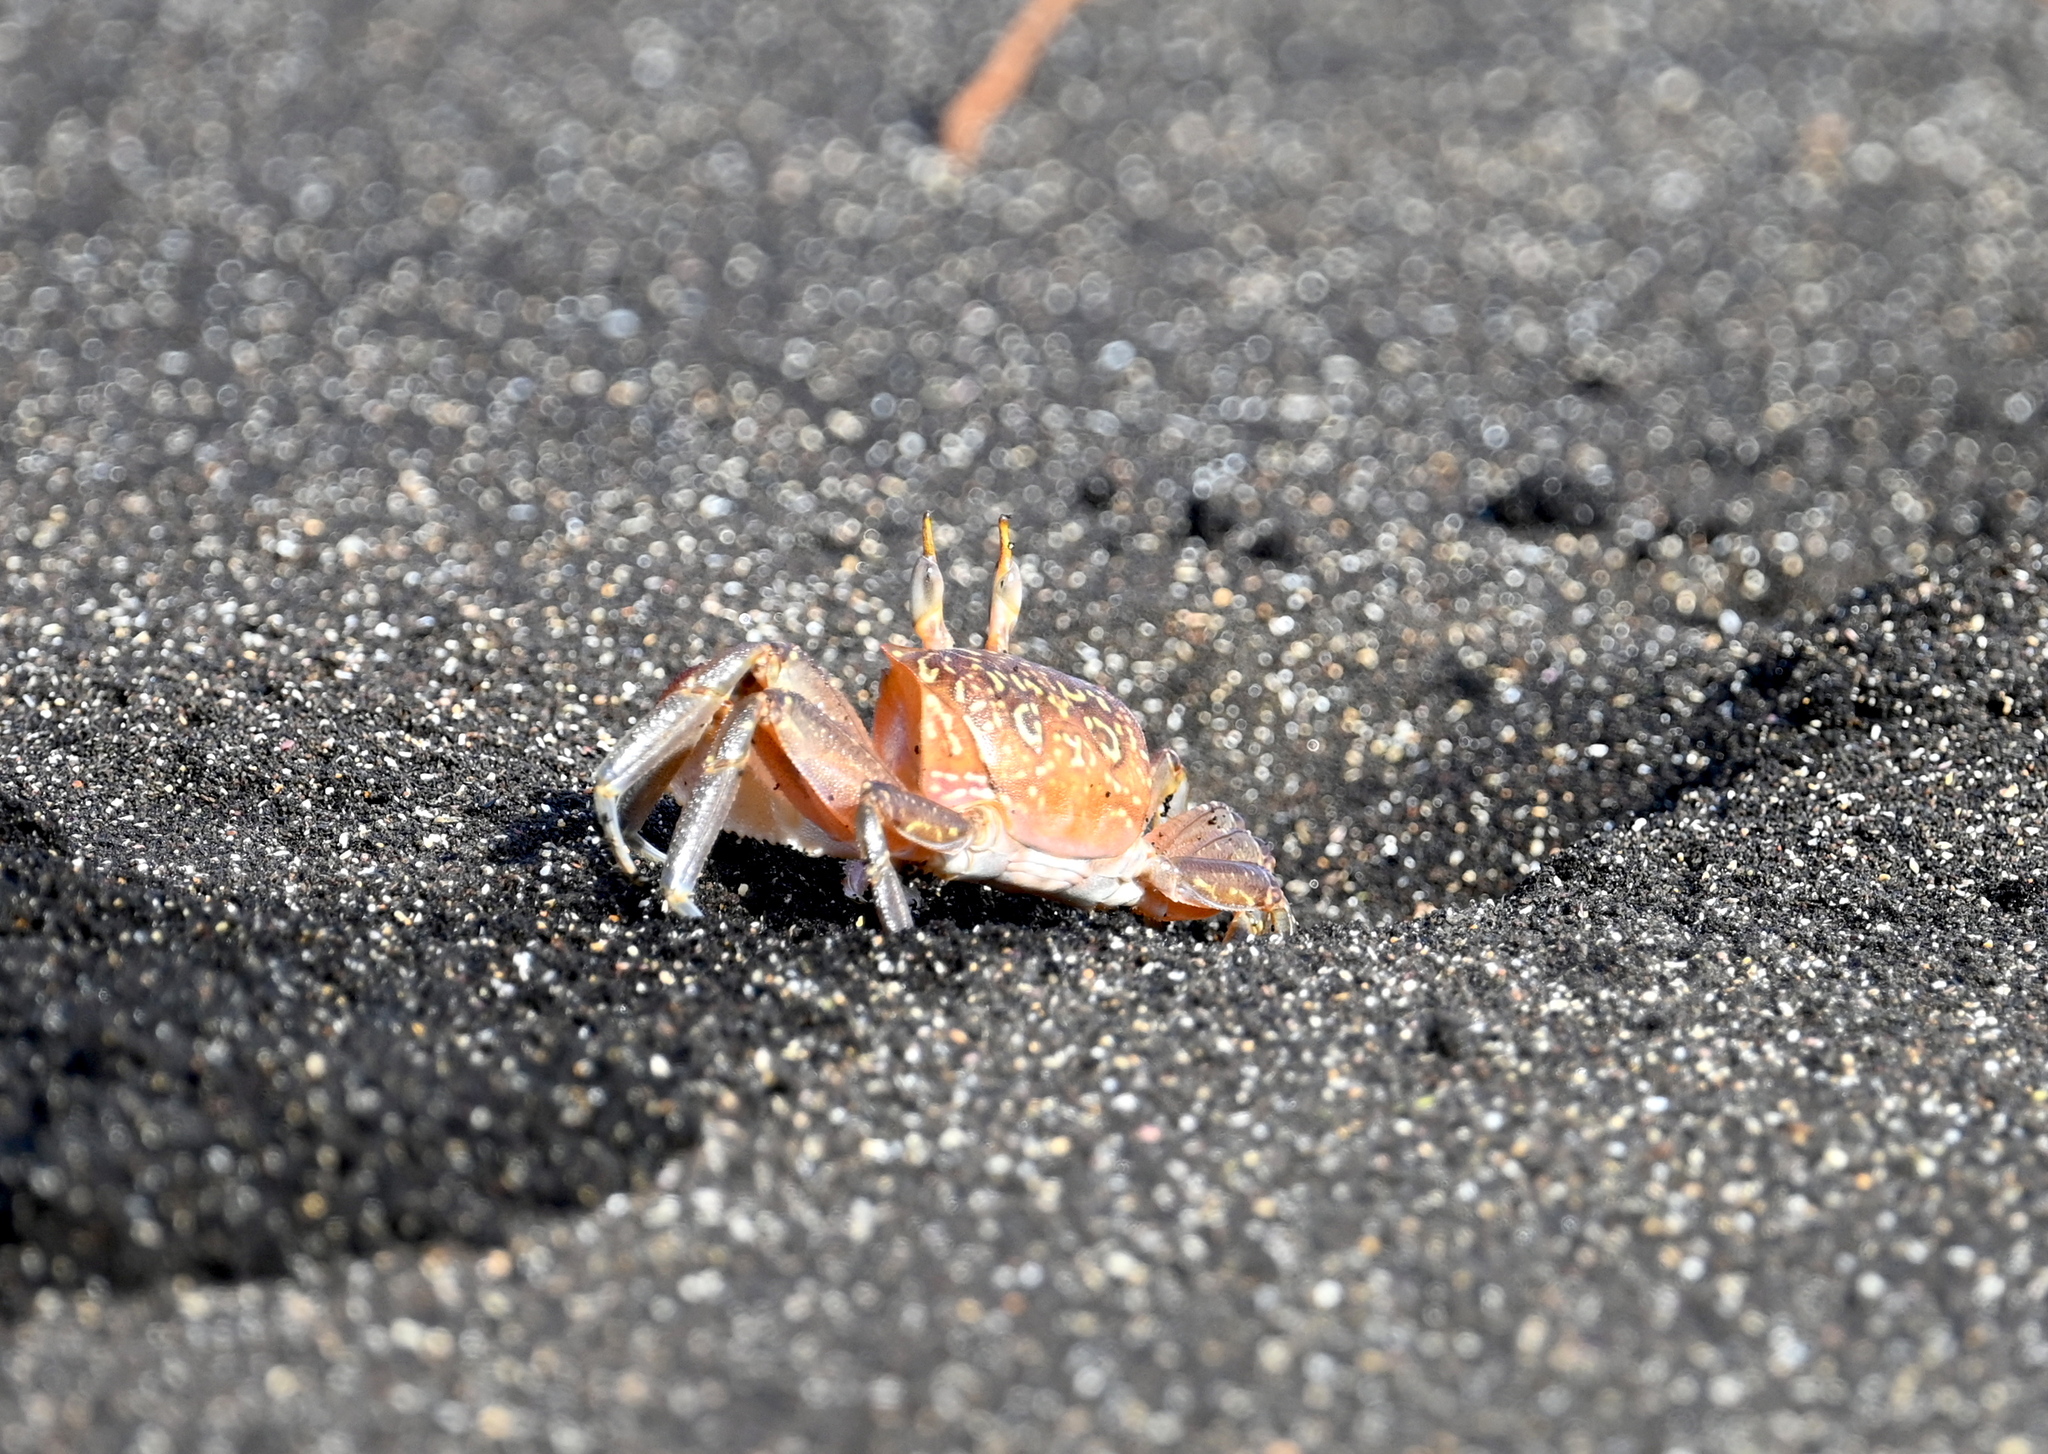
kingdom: Animalia
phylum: Arthropoda
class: Malacostraca
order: Decapoda
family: Ocypodidae
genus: Ocypode
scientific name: Ocypode gaudichaudii
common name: Pacific ghost crab
